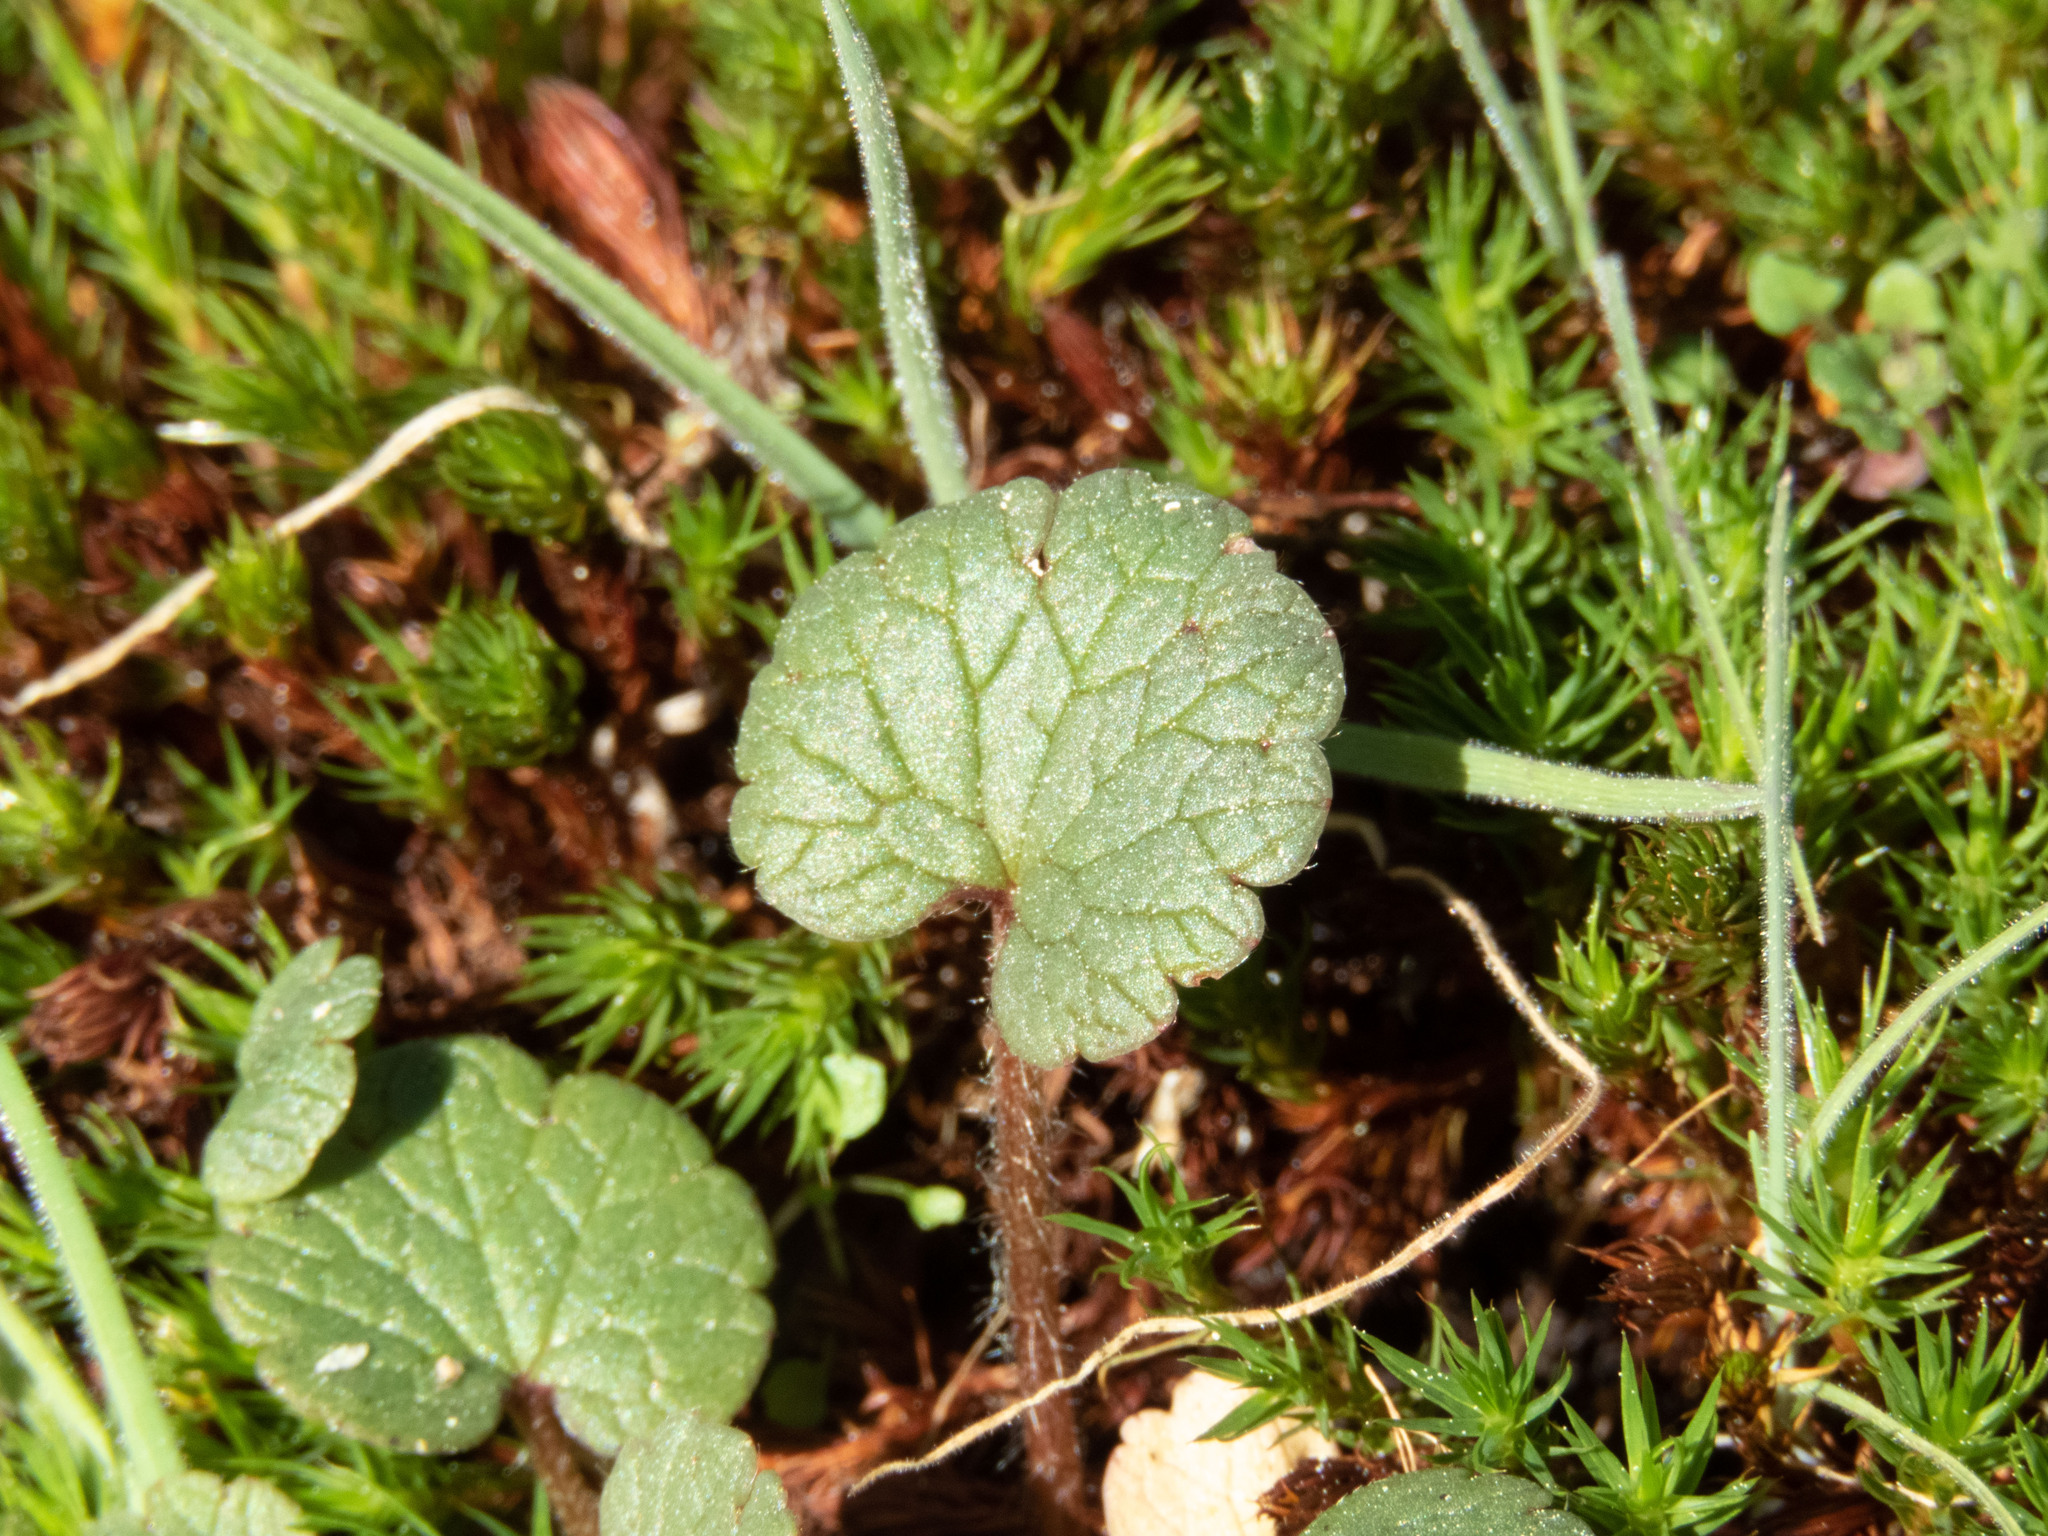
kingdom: Plantae
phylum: Tracheophyta
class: Magnoliopsida
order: Ranunculales
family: Ranunculaceae
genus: Ranunculus
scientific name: Ranunculus nigrescens
